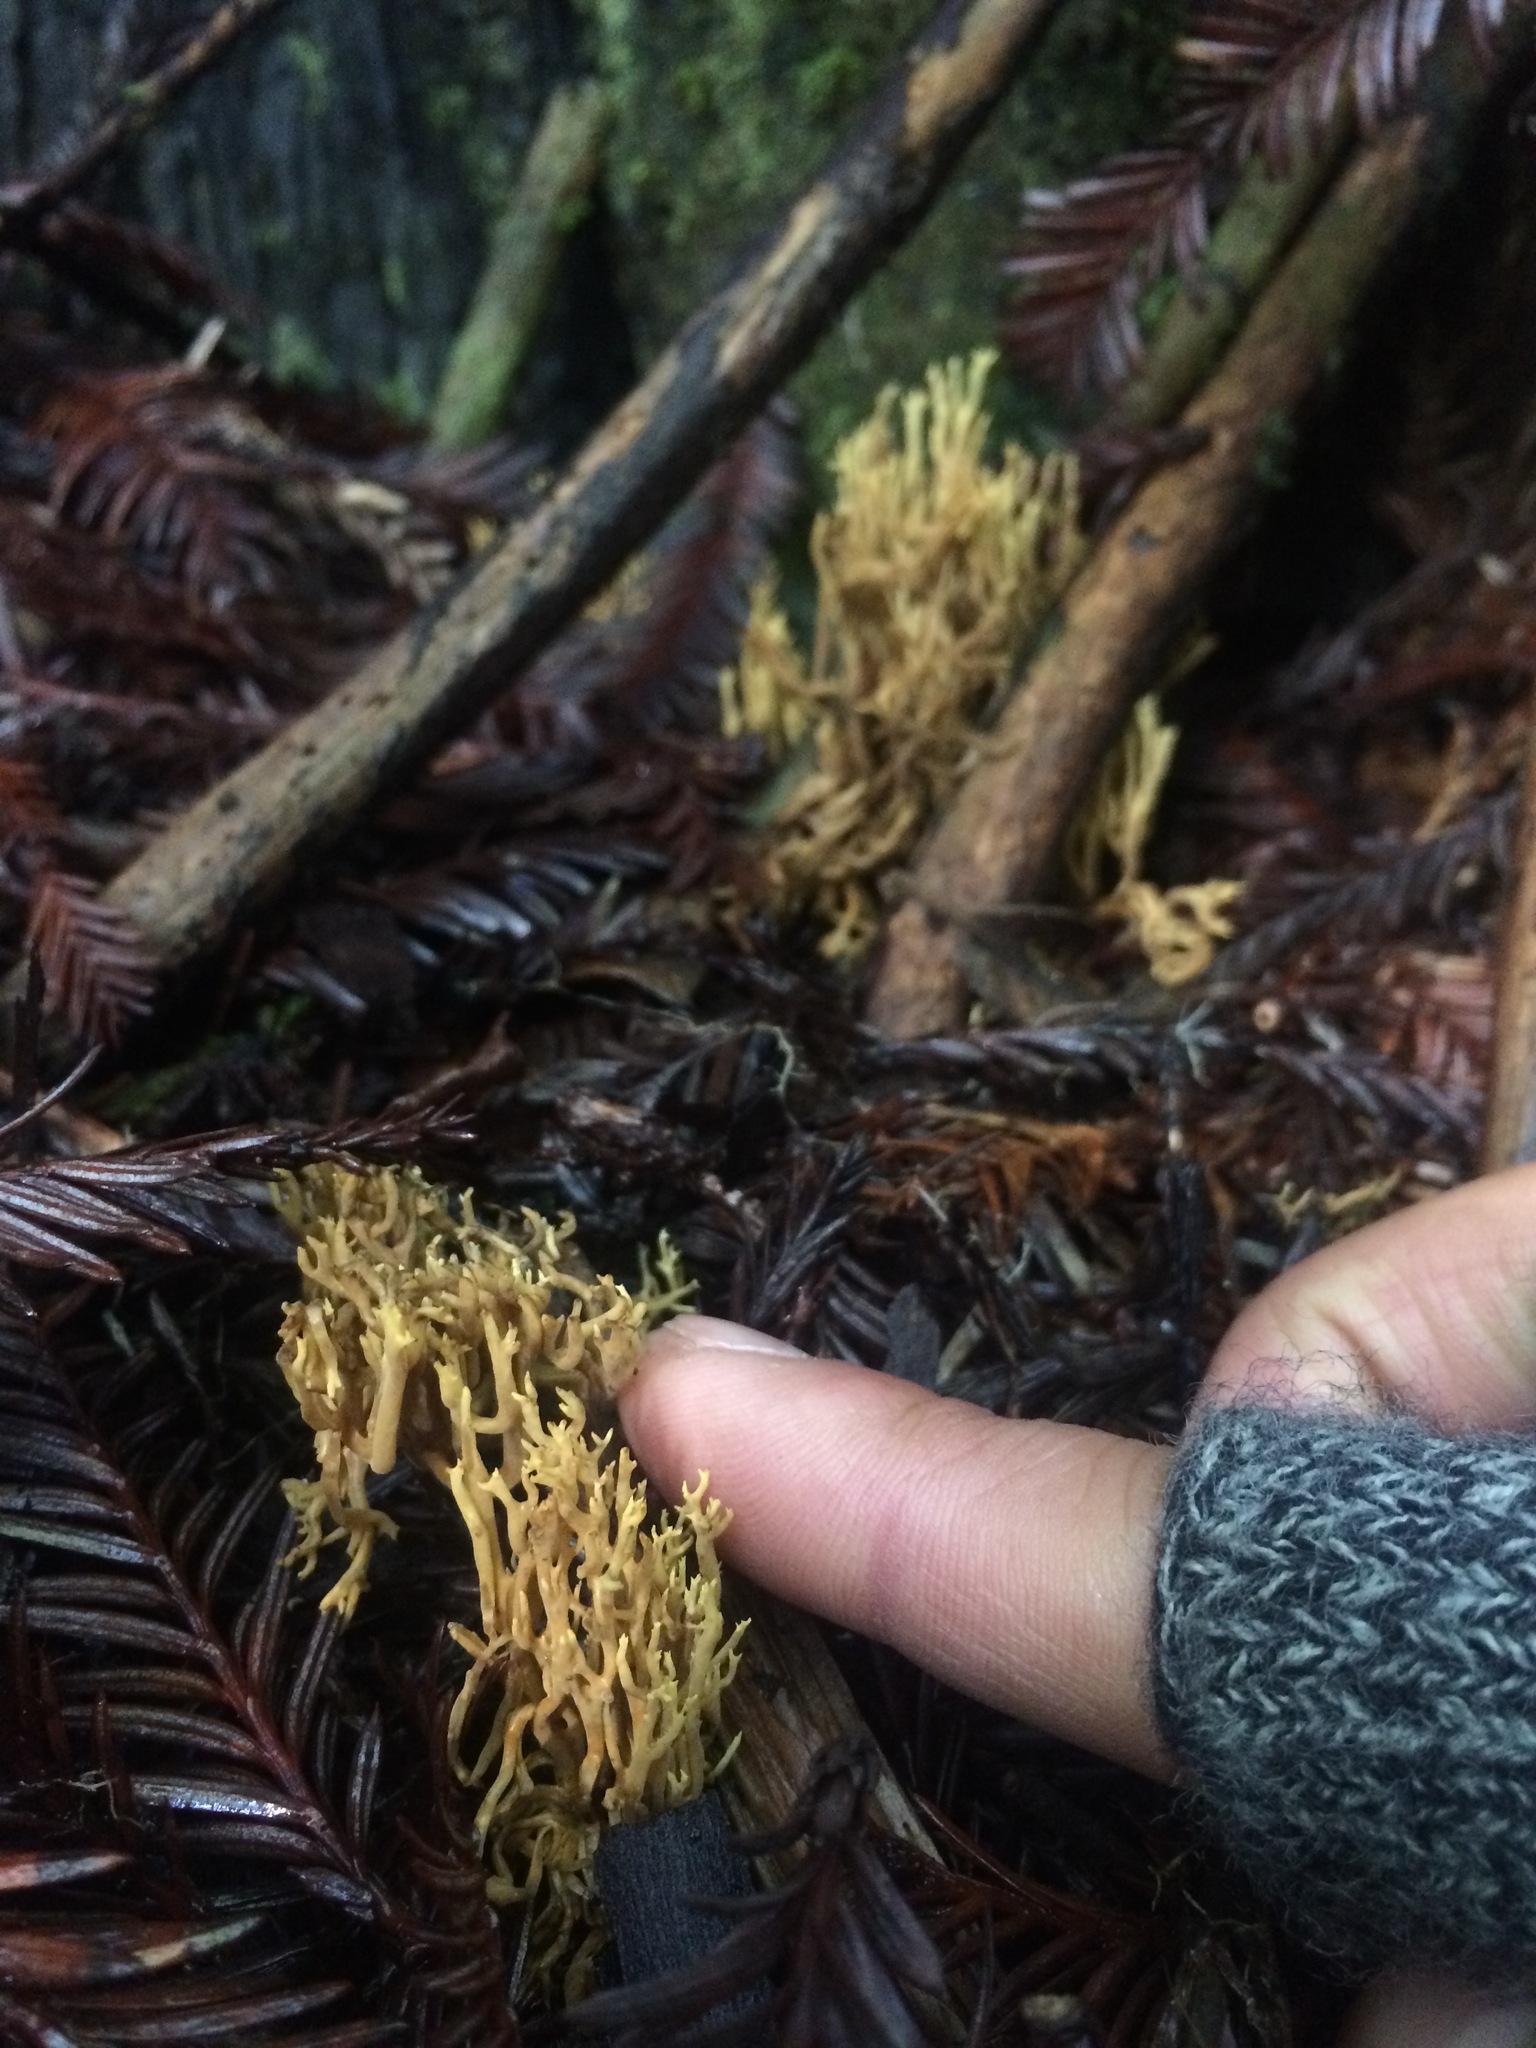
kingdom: Fungi
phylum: Basidiomycota
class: Agaricomycetes
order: Gomphales
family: Gomphaceae
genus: Phaeoclavulina
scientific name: Phaeoclavulina myceliosa
